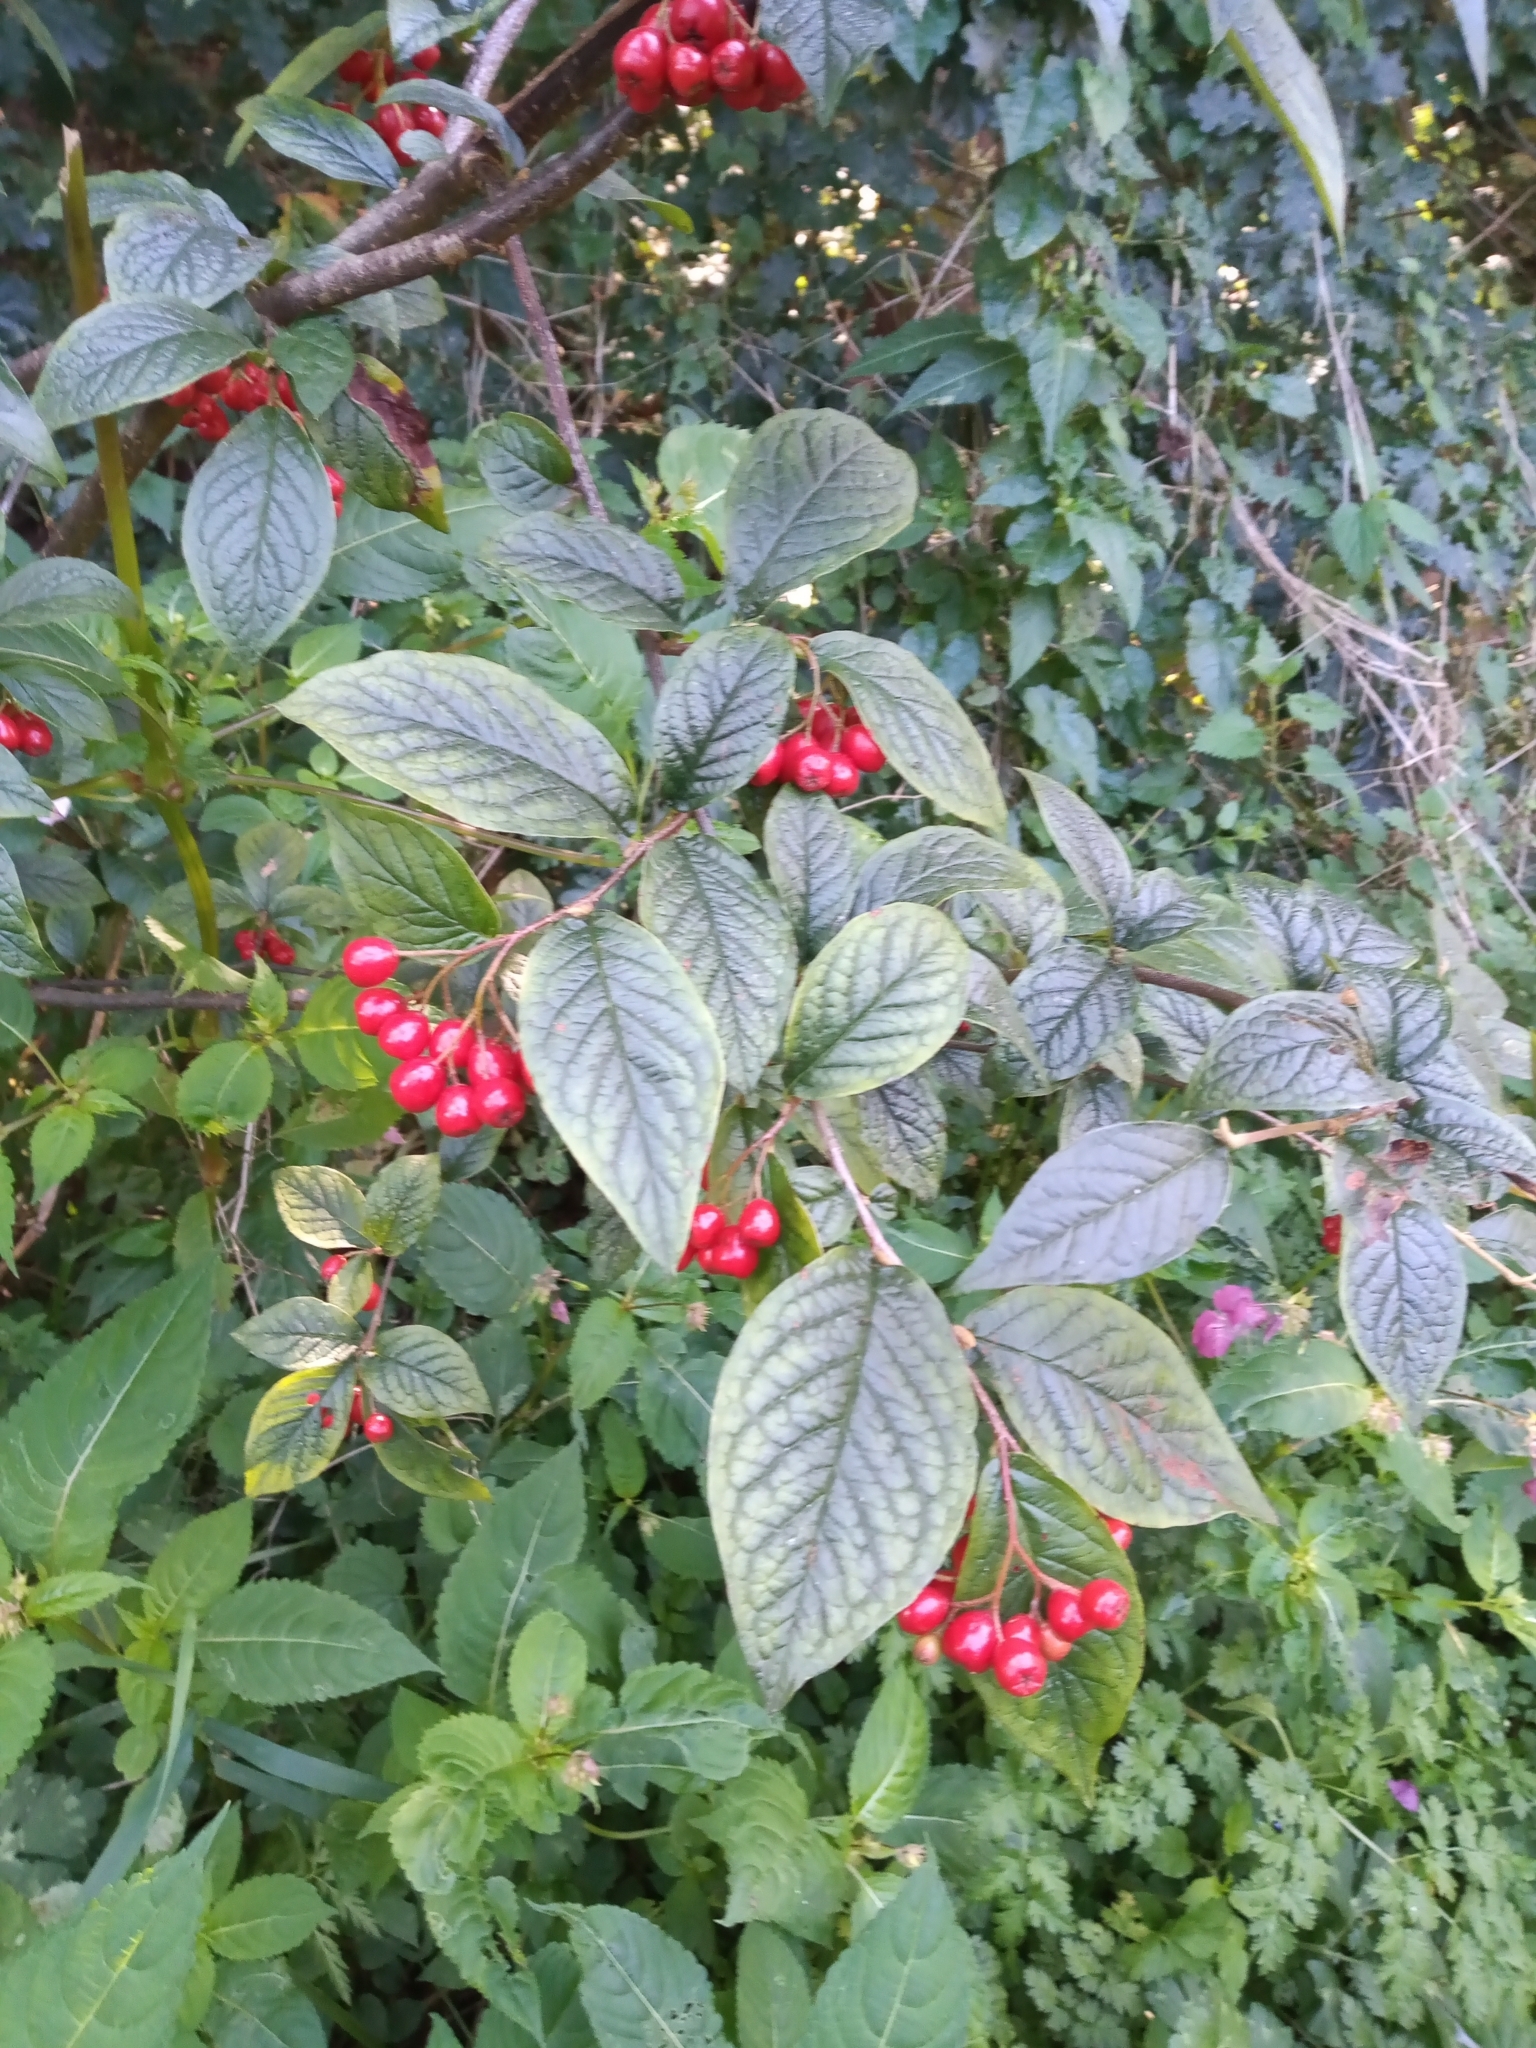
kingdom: Plantae
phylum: Tracheophyta
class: Magnoliopsida
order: Rosales
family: Rosaceae
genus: Cotoneaster
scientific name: Cotoneaster bullatus
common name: Hollyberry cotoneaster
